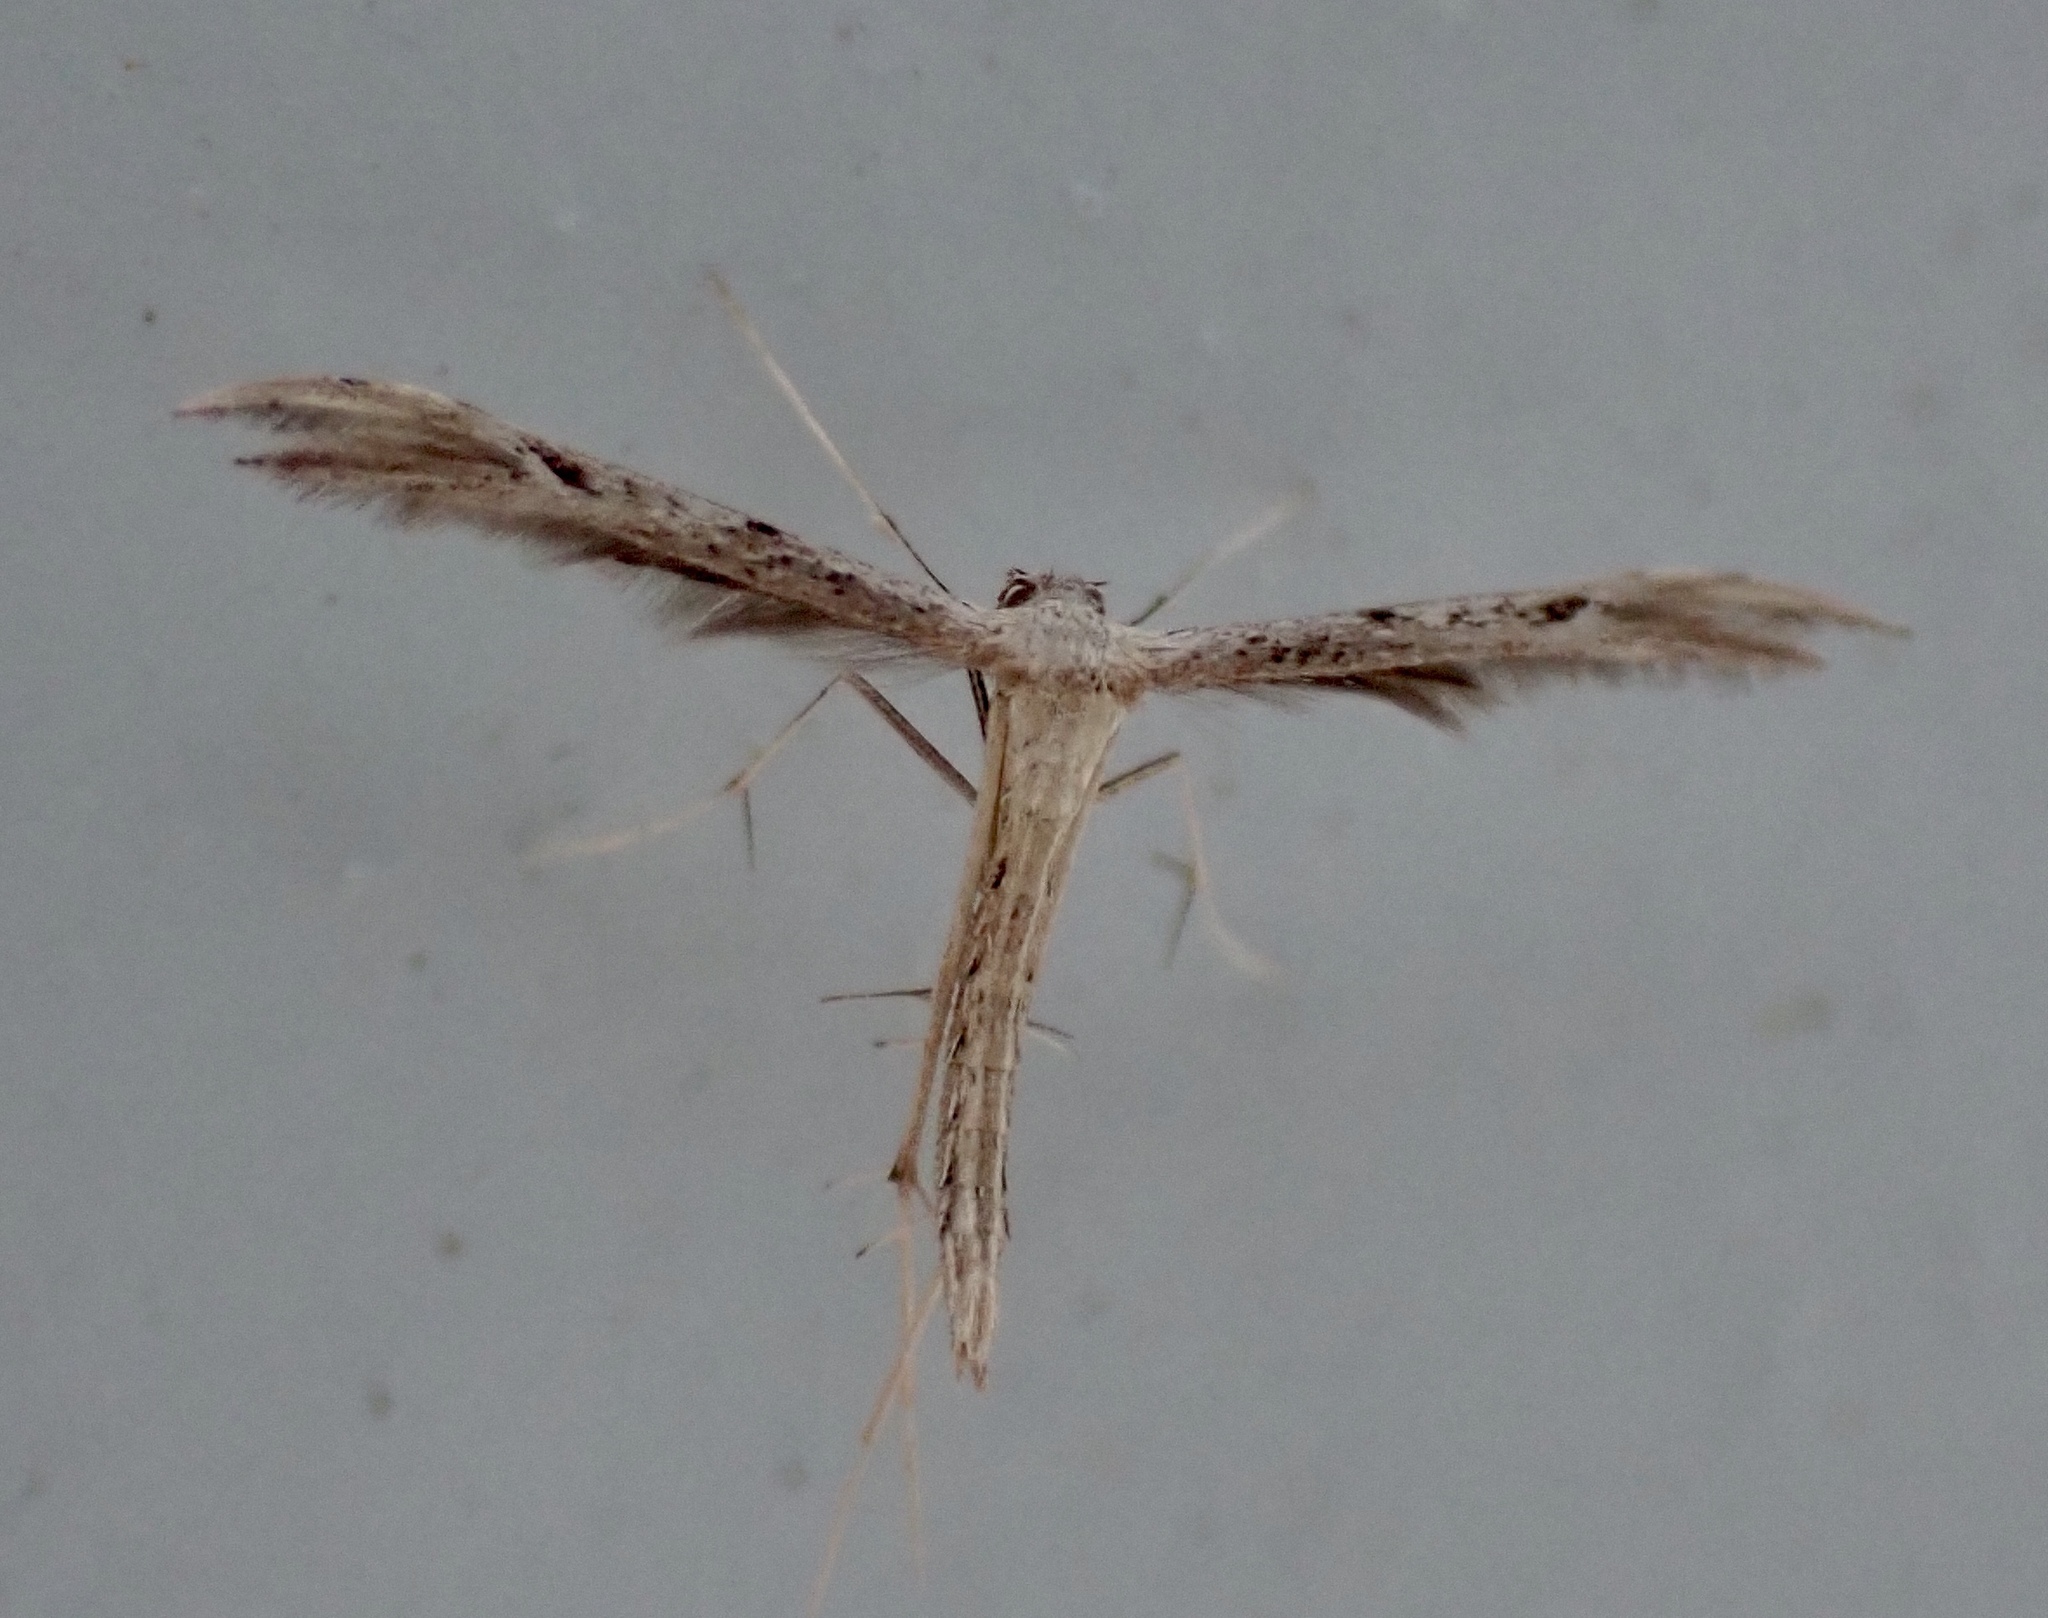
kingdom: Animalia
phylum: Arthropoda
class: Insecta
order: Lepidoptera
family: Pterophoridae
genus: Pselnophorus
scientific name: Pselnophorus belfragei
